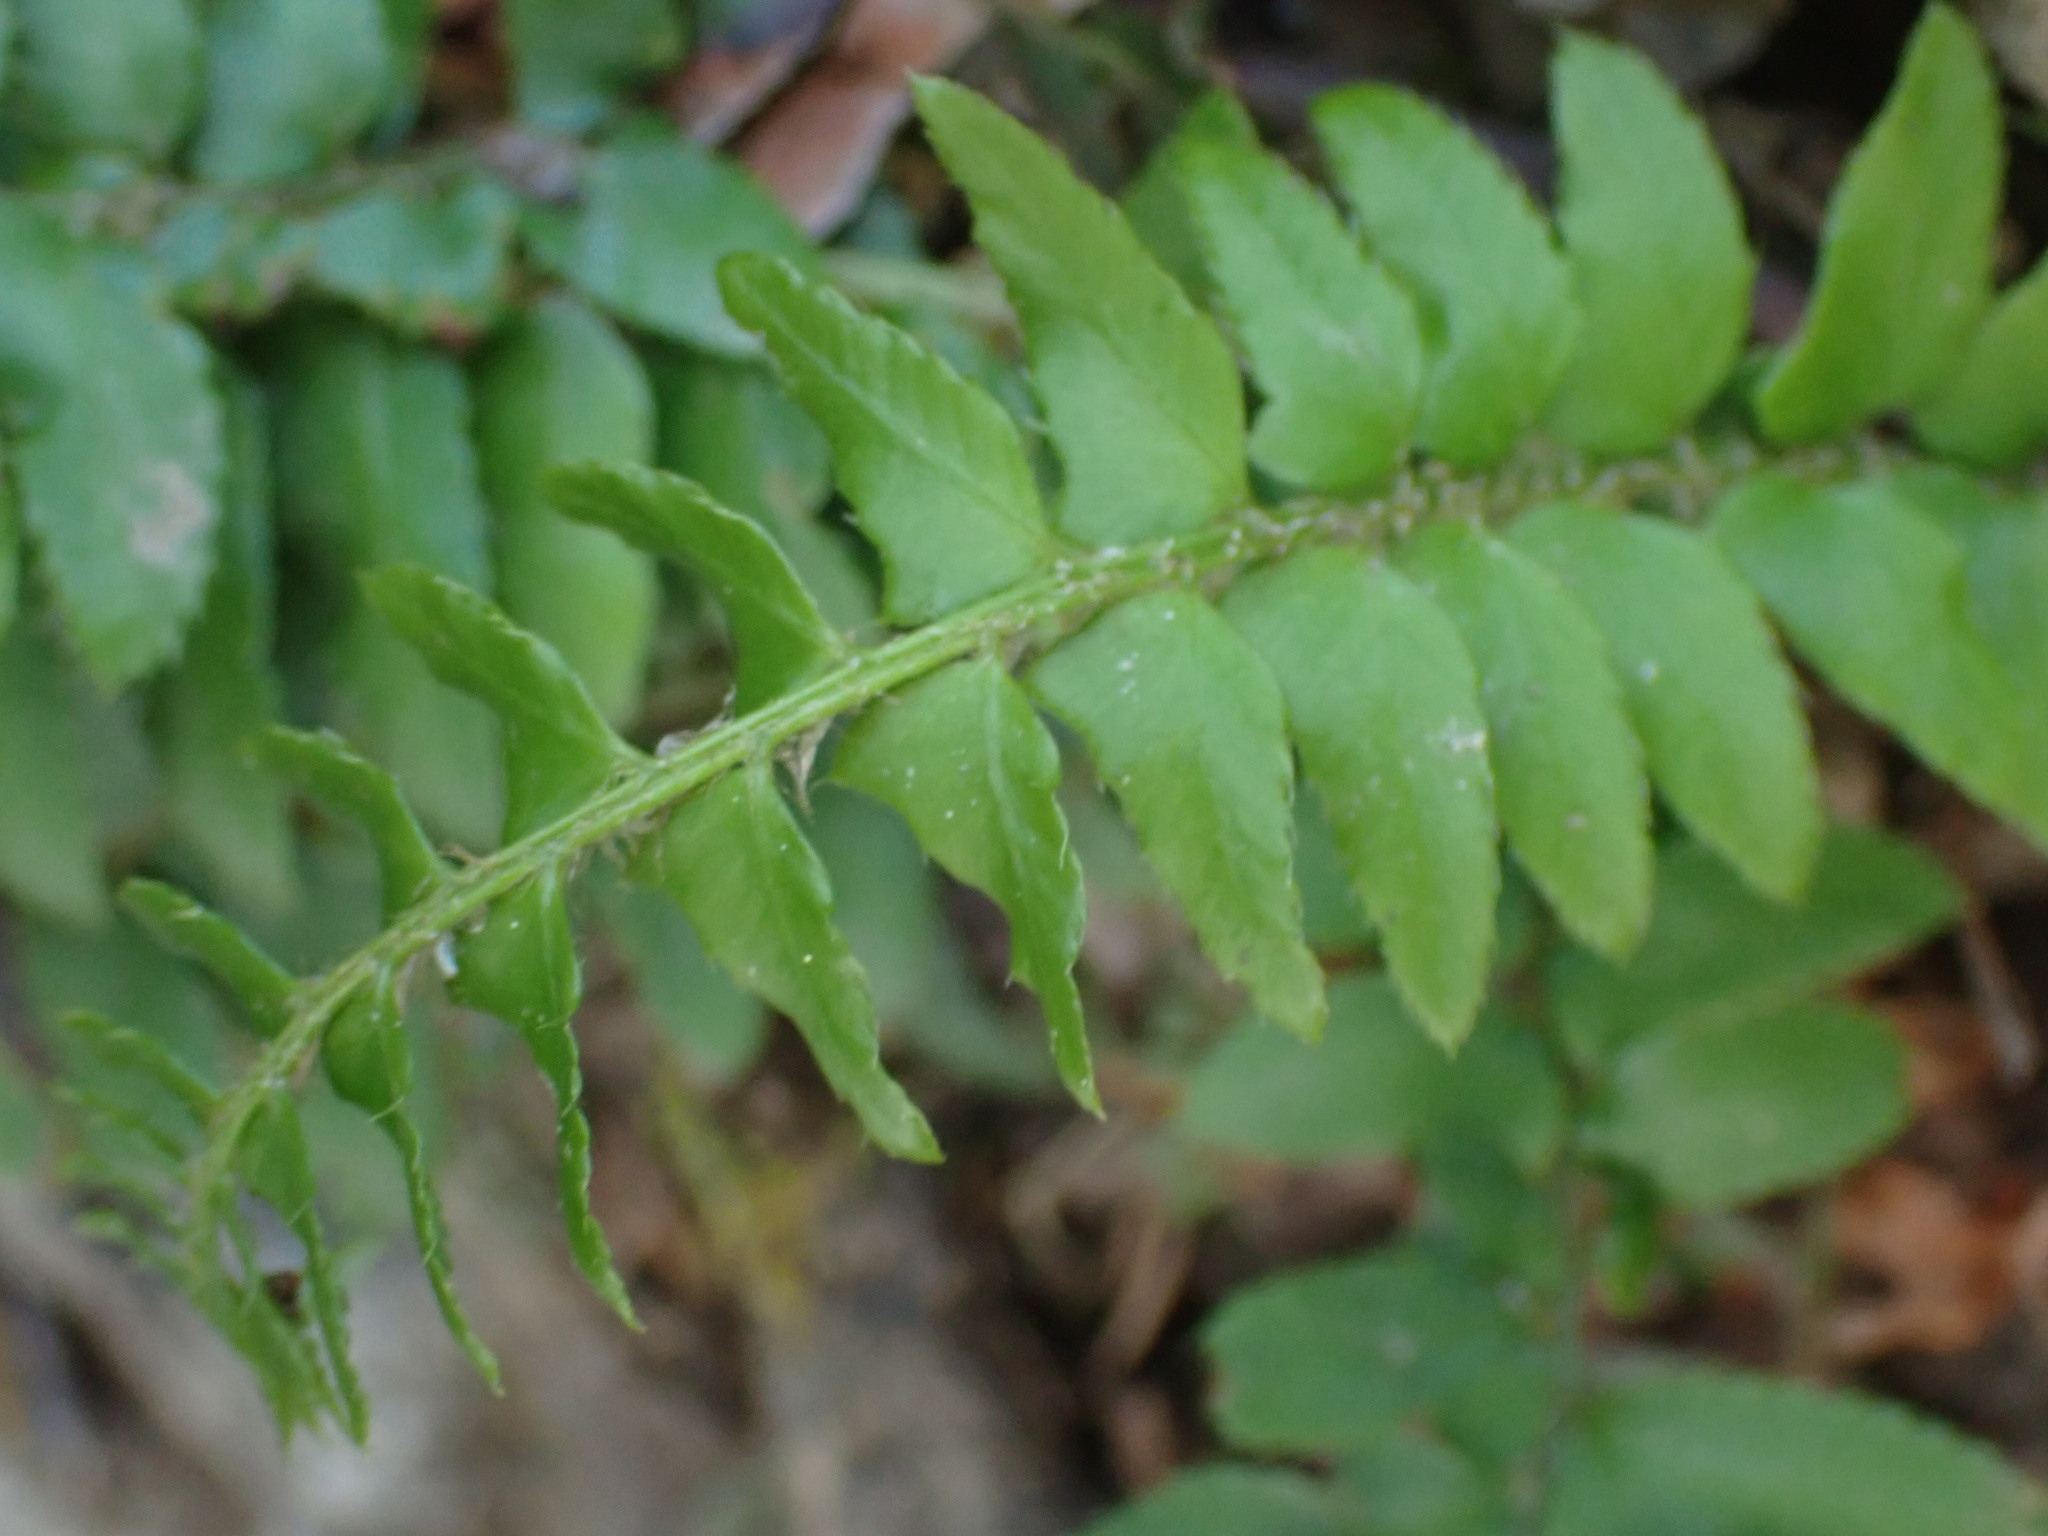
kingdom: Plantae
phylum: Tracheophyta
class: Polypodiopsida
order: Polypodiales
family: Dryopteridaceae
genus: Polystichum
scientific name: Polystichum munitum
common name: Western sword-fern
